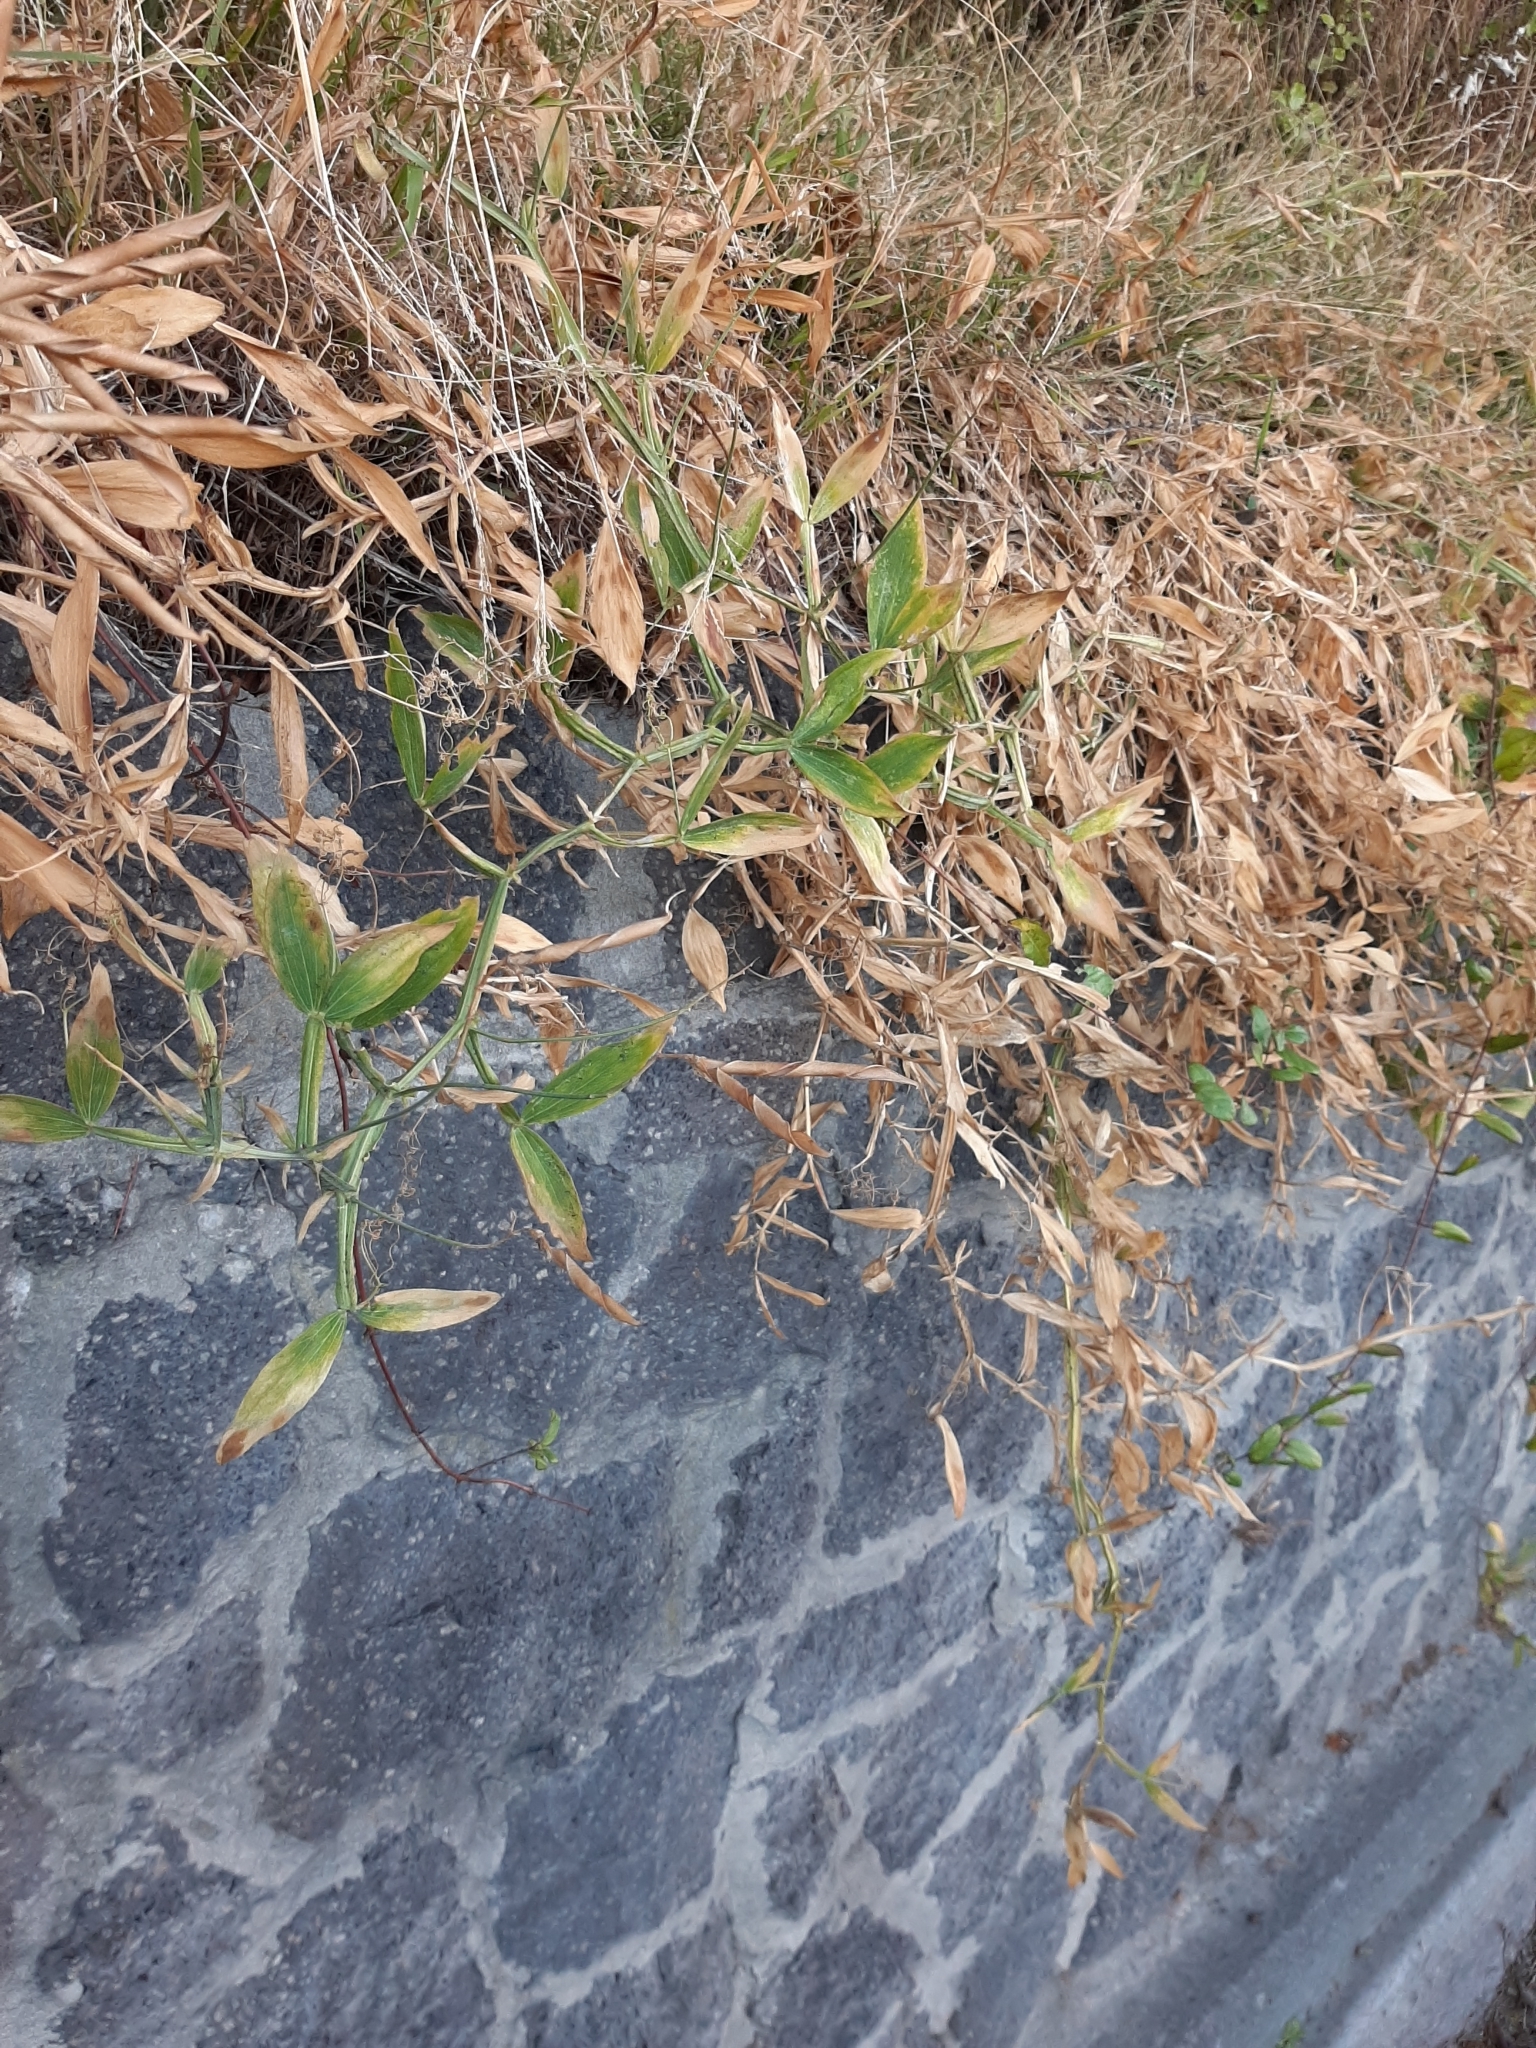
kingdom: Plantae
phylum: Tracheophyta
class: Magnoliopsida
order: Fabales
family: Fabaceae
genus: Lathyrus
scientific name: Lathyrus latifolius
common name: Perennial pea
